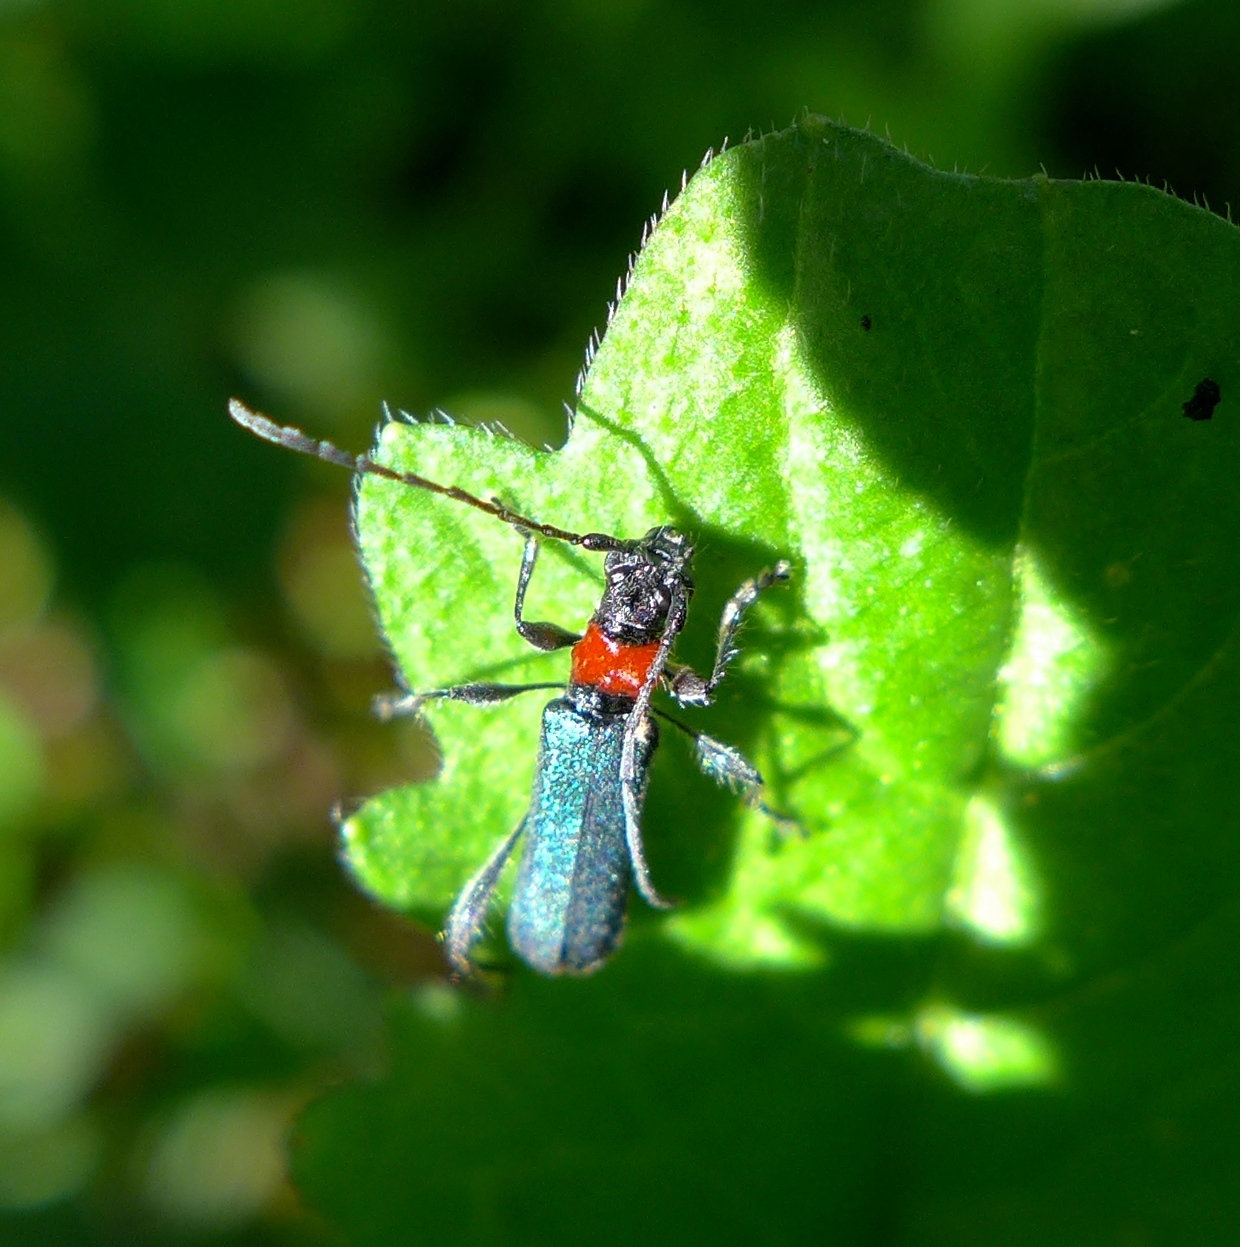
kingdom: Animalia
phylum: Arthropoda
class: Insecta
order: Coleoptera
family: Cerambycidae
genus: Callimus
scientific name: Callimus ruficollis
